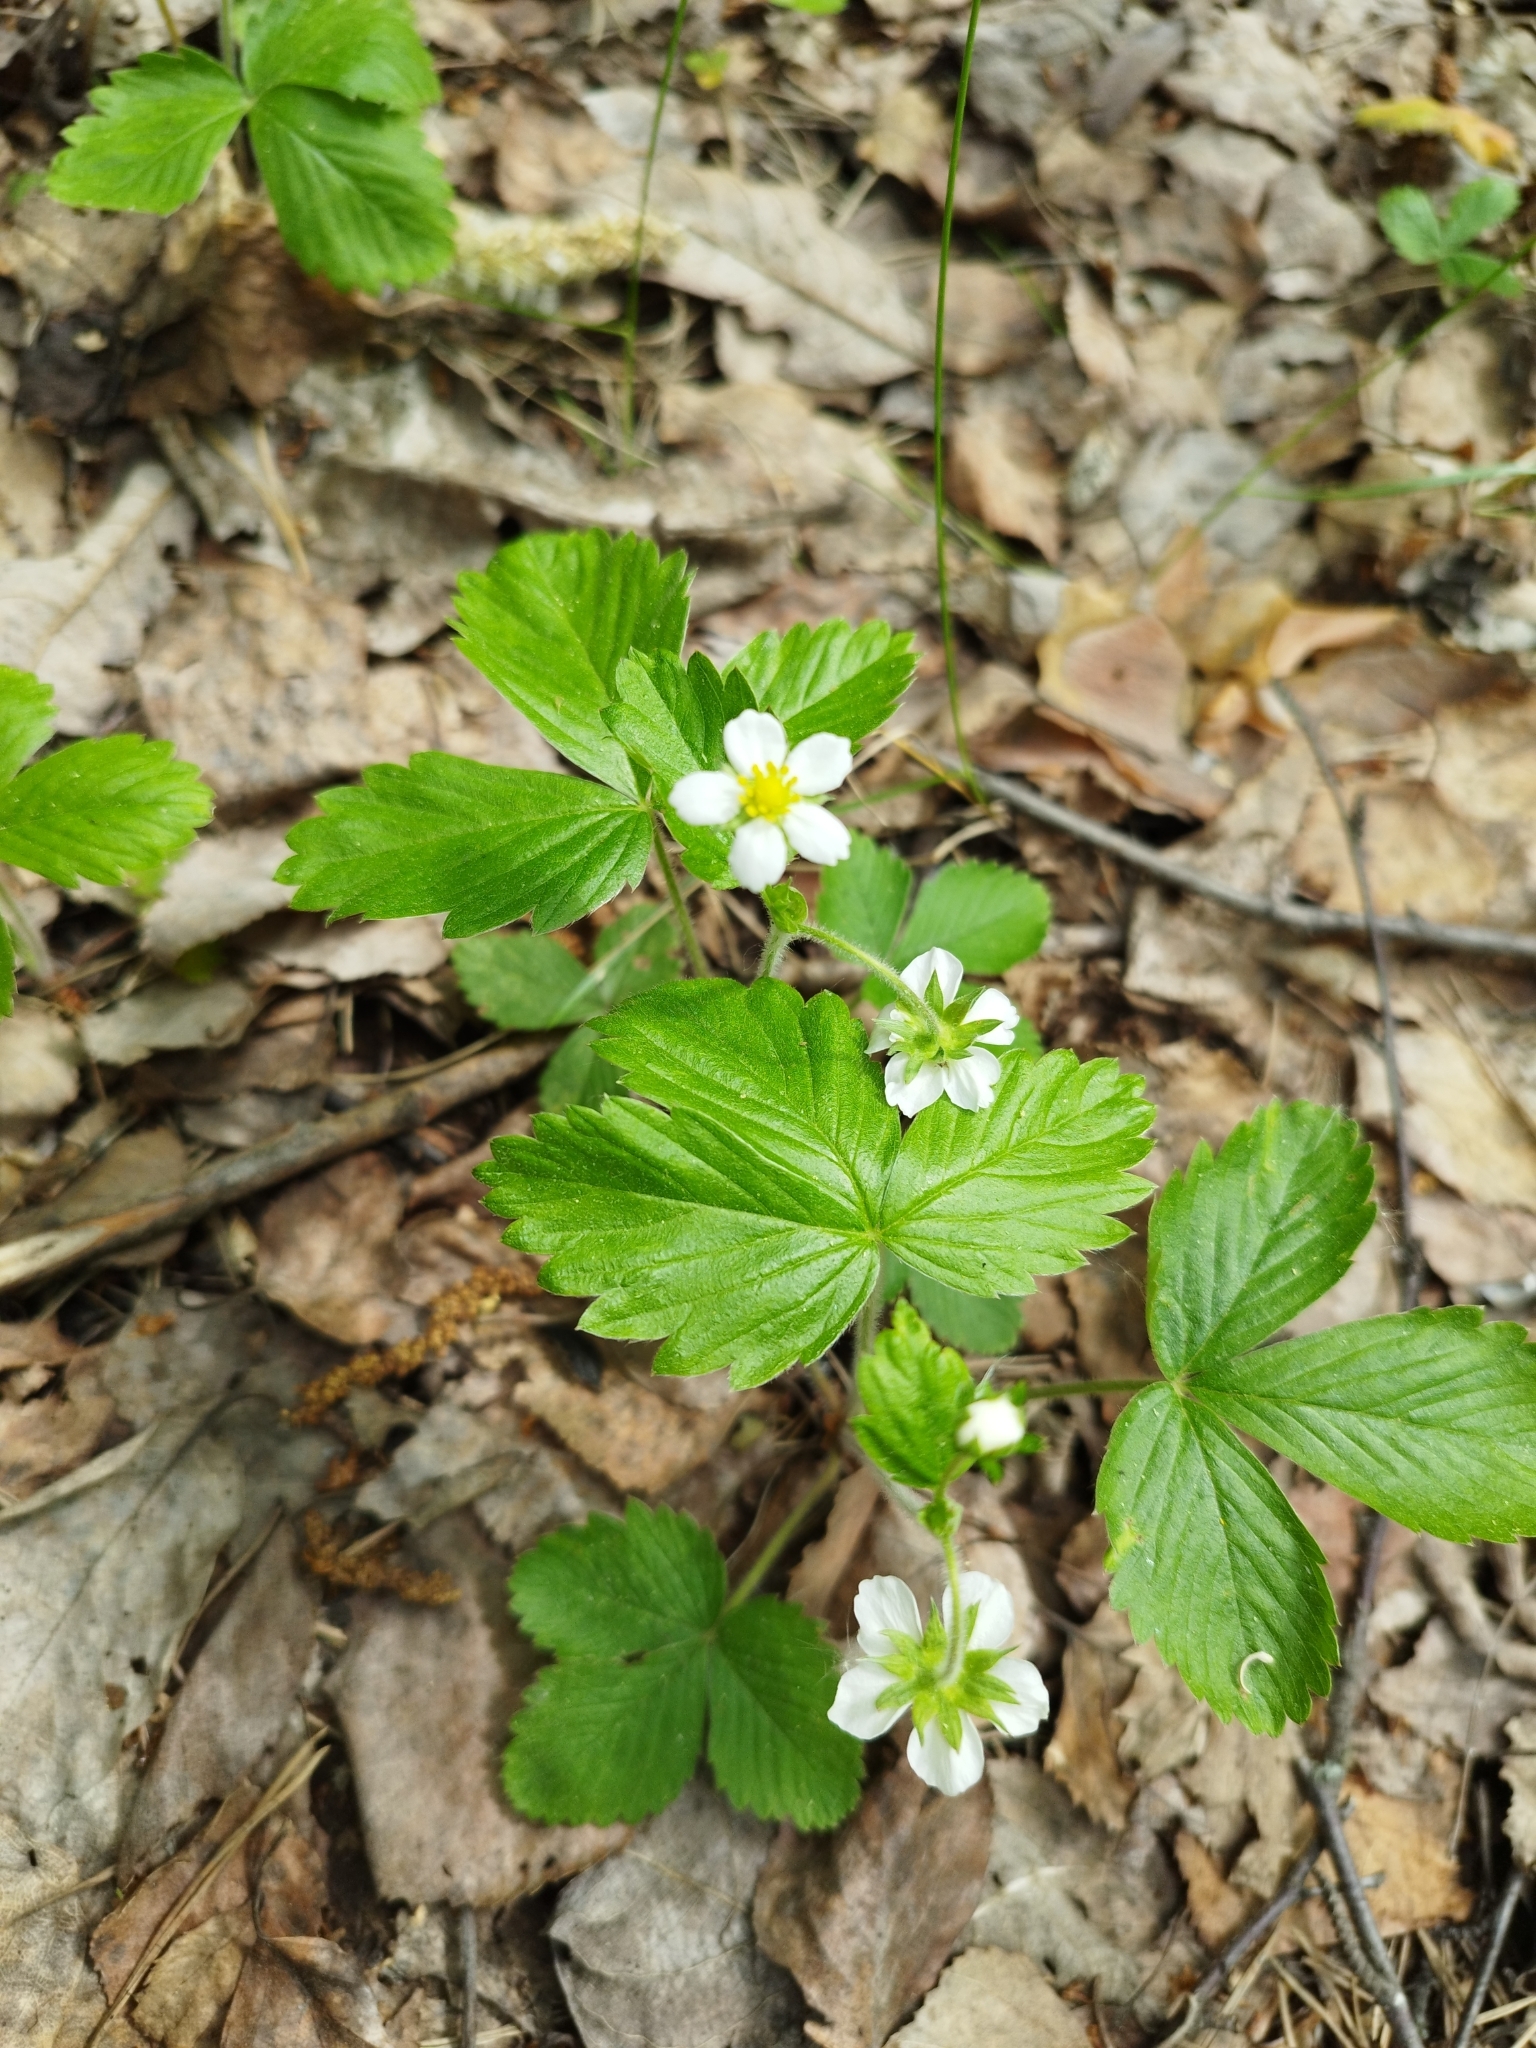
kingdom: Plantae
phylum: Tracheophyta
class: Magnoliopsida
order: Rosales
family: Rosaceae
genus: Fragaria
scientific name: Fragaria vesca
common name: Wild strawberry
